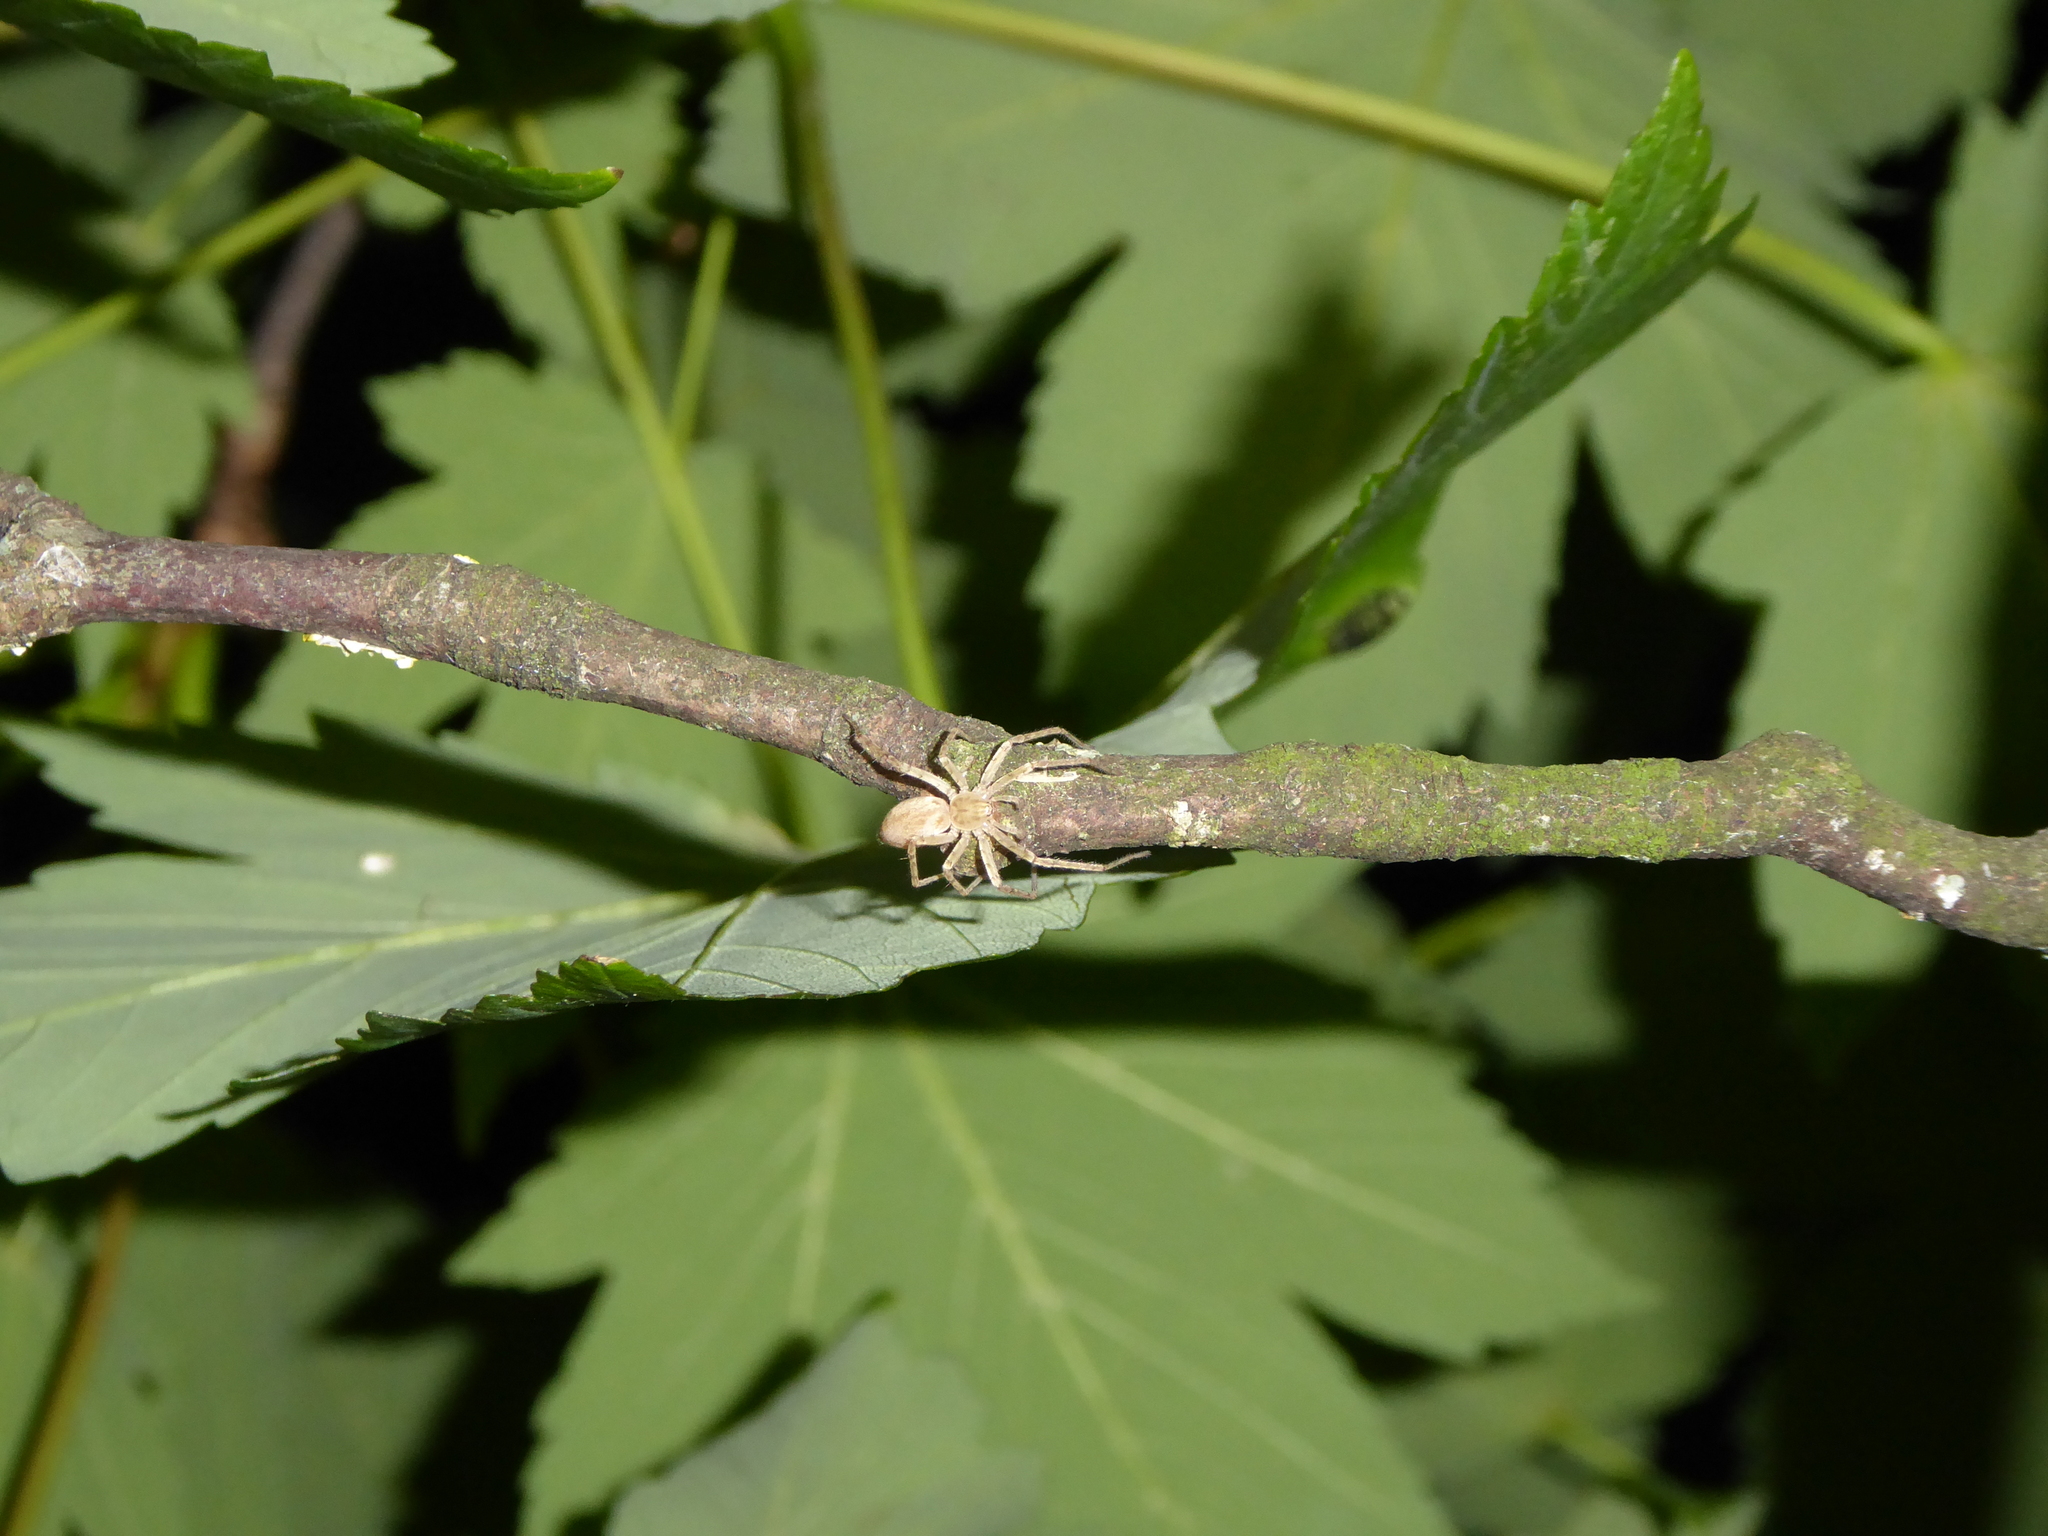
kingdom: Animalia
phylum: Arthropoda
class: Arachnida
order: Araneae
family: Anyphaenidae
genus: Anyphaena
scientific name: Anyphaena
